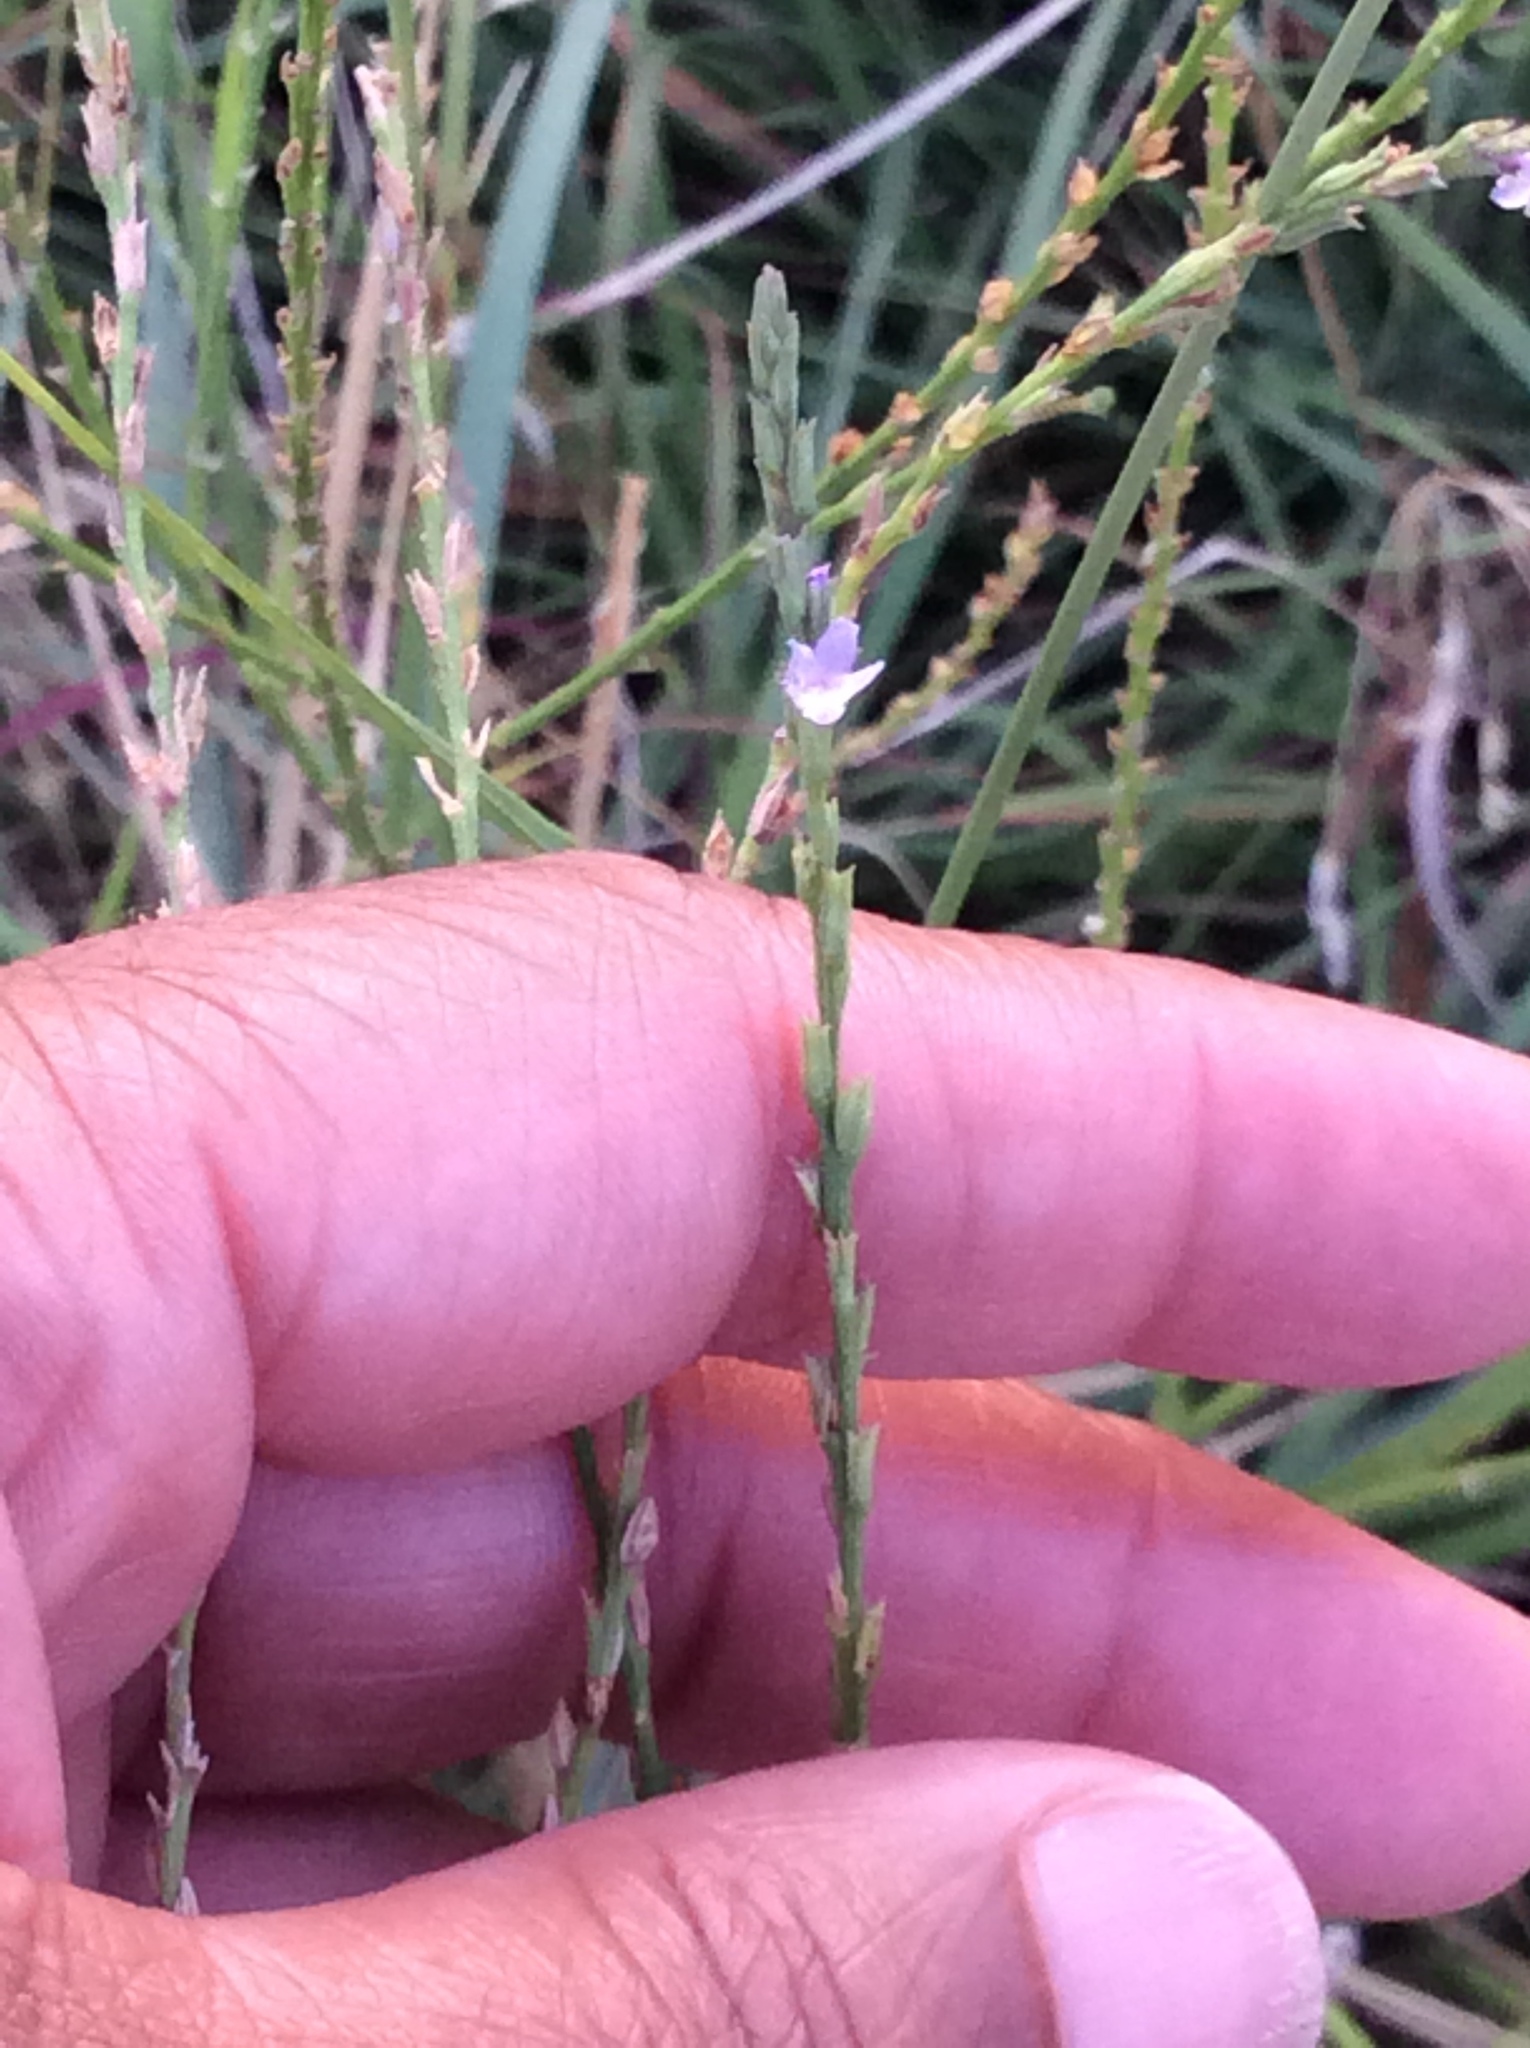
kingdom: Plantae
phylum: Tracheophyta
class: Magnoliopsida
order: Lamiales
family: Verbenaceae
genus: Verbena
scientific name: Verbena halei
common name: Texas vervain
